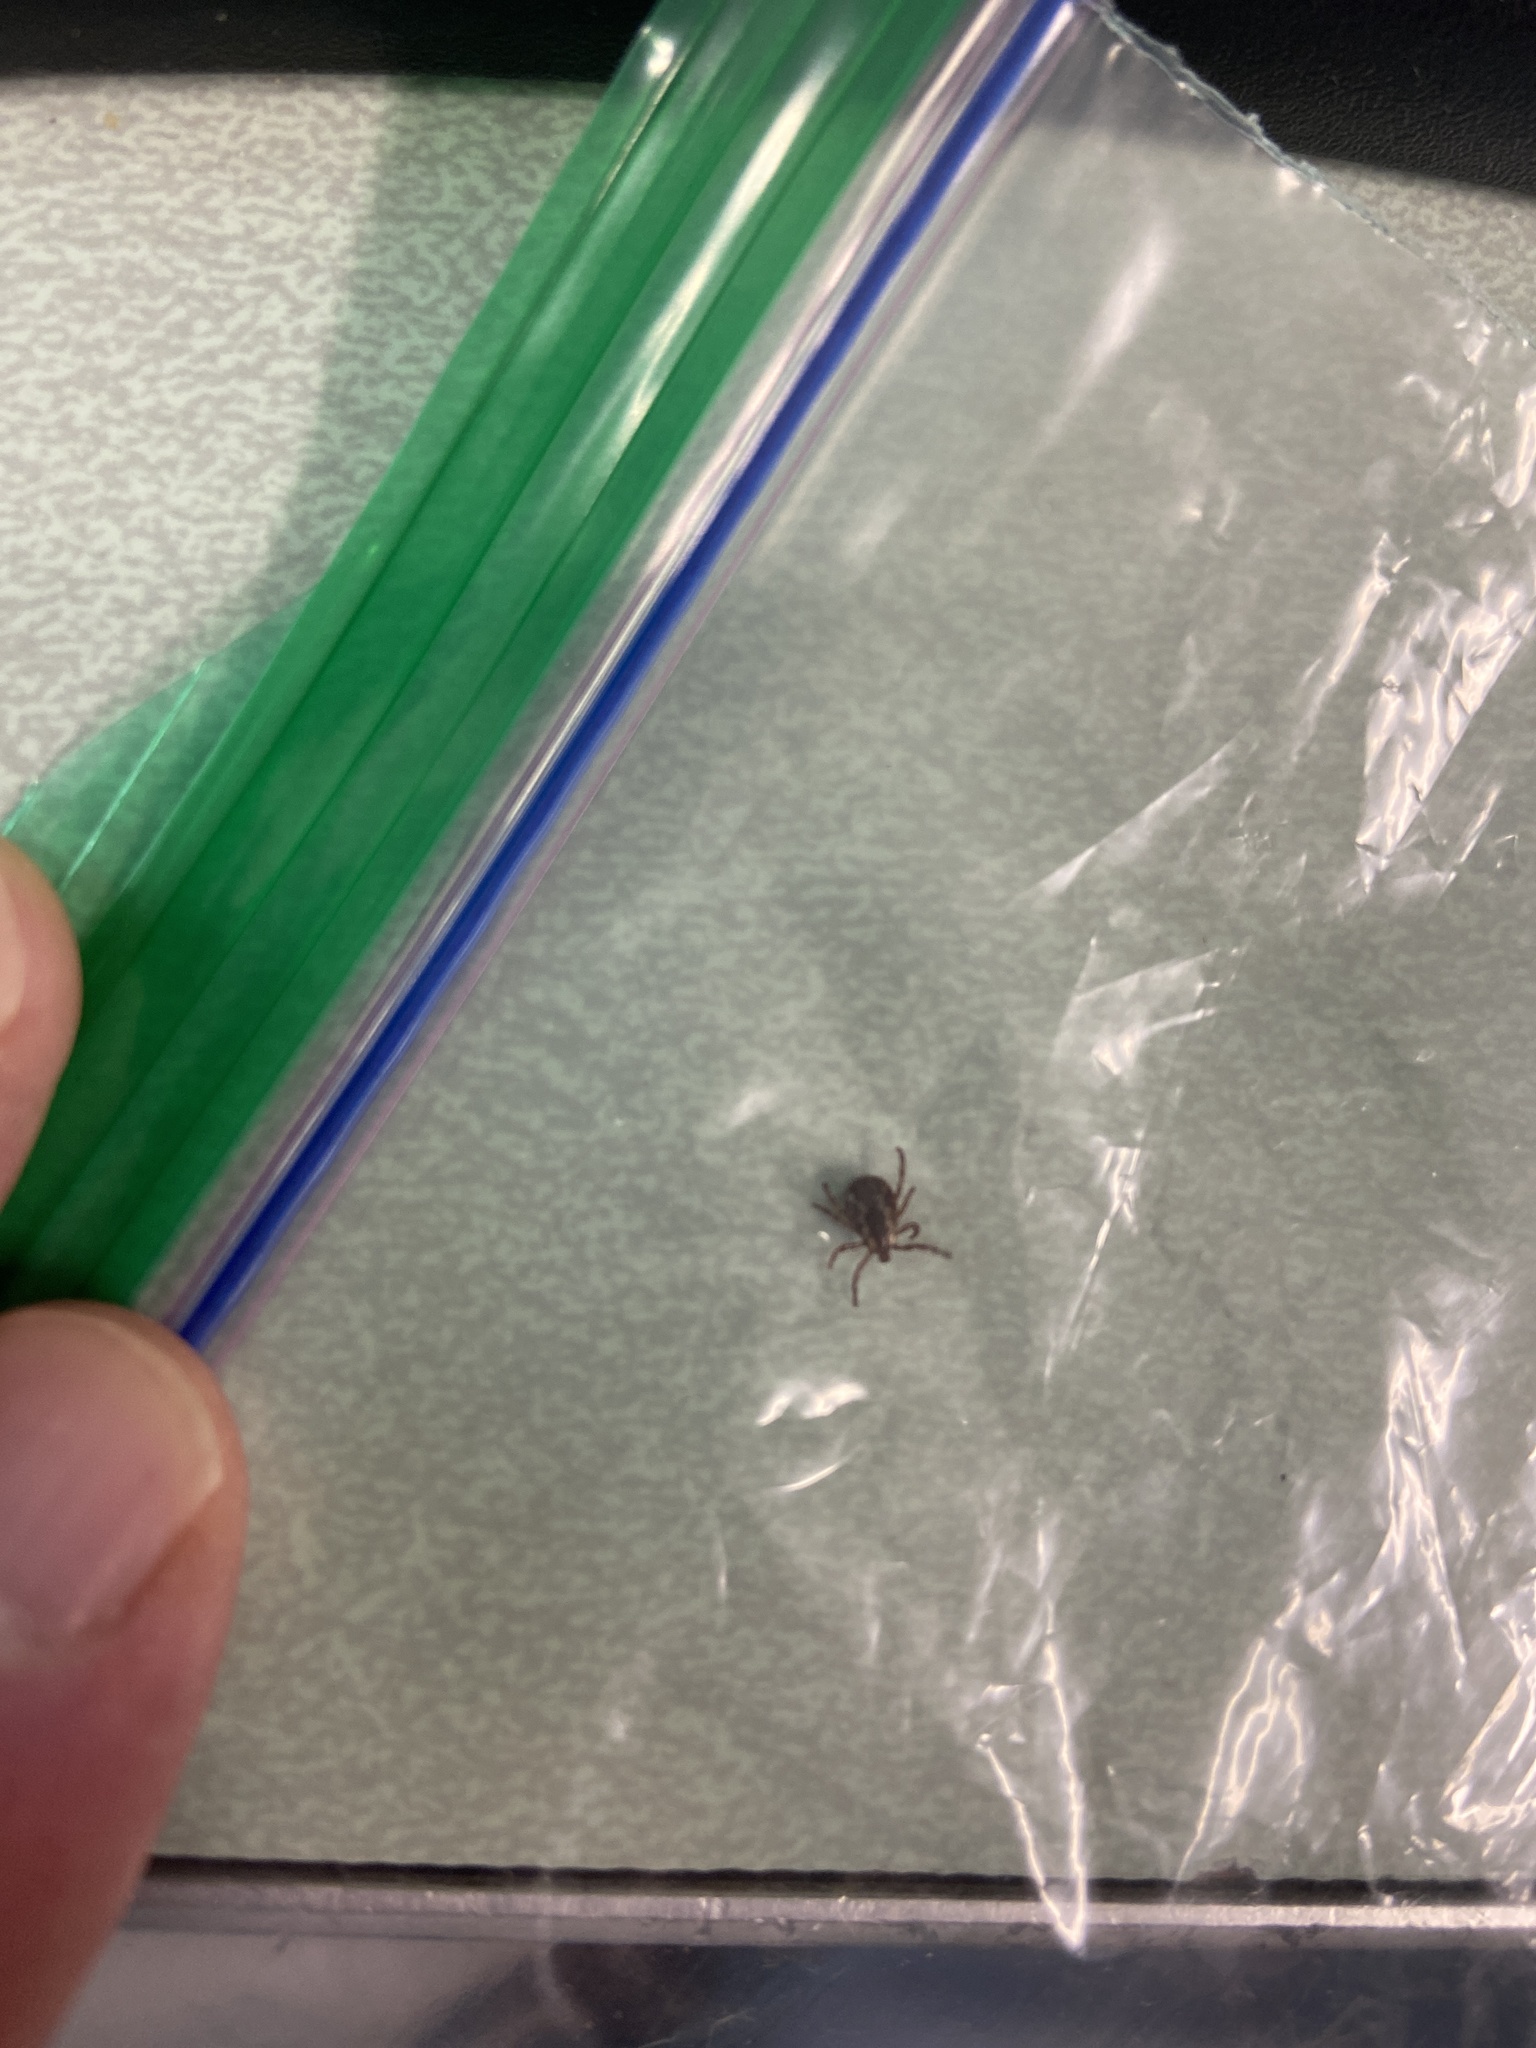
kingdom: Animalia
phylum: Arthropoda
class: Arachnida
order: Ixodida
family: Ixodidae
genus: Dermacentor
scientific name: Dermacentor variabilis
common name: American dog tick
